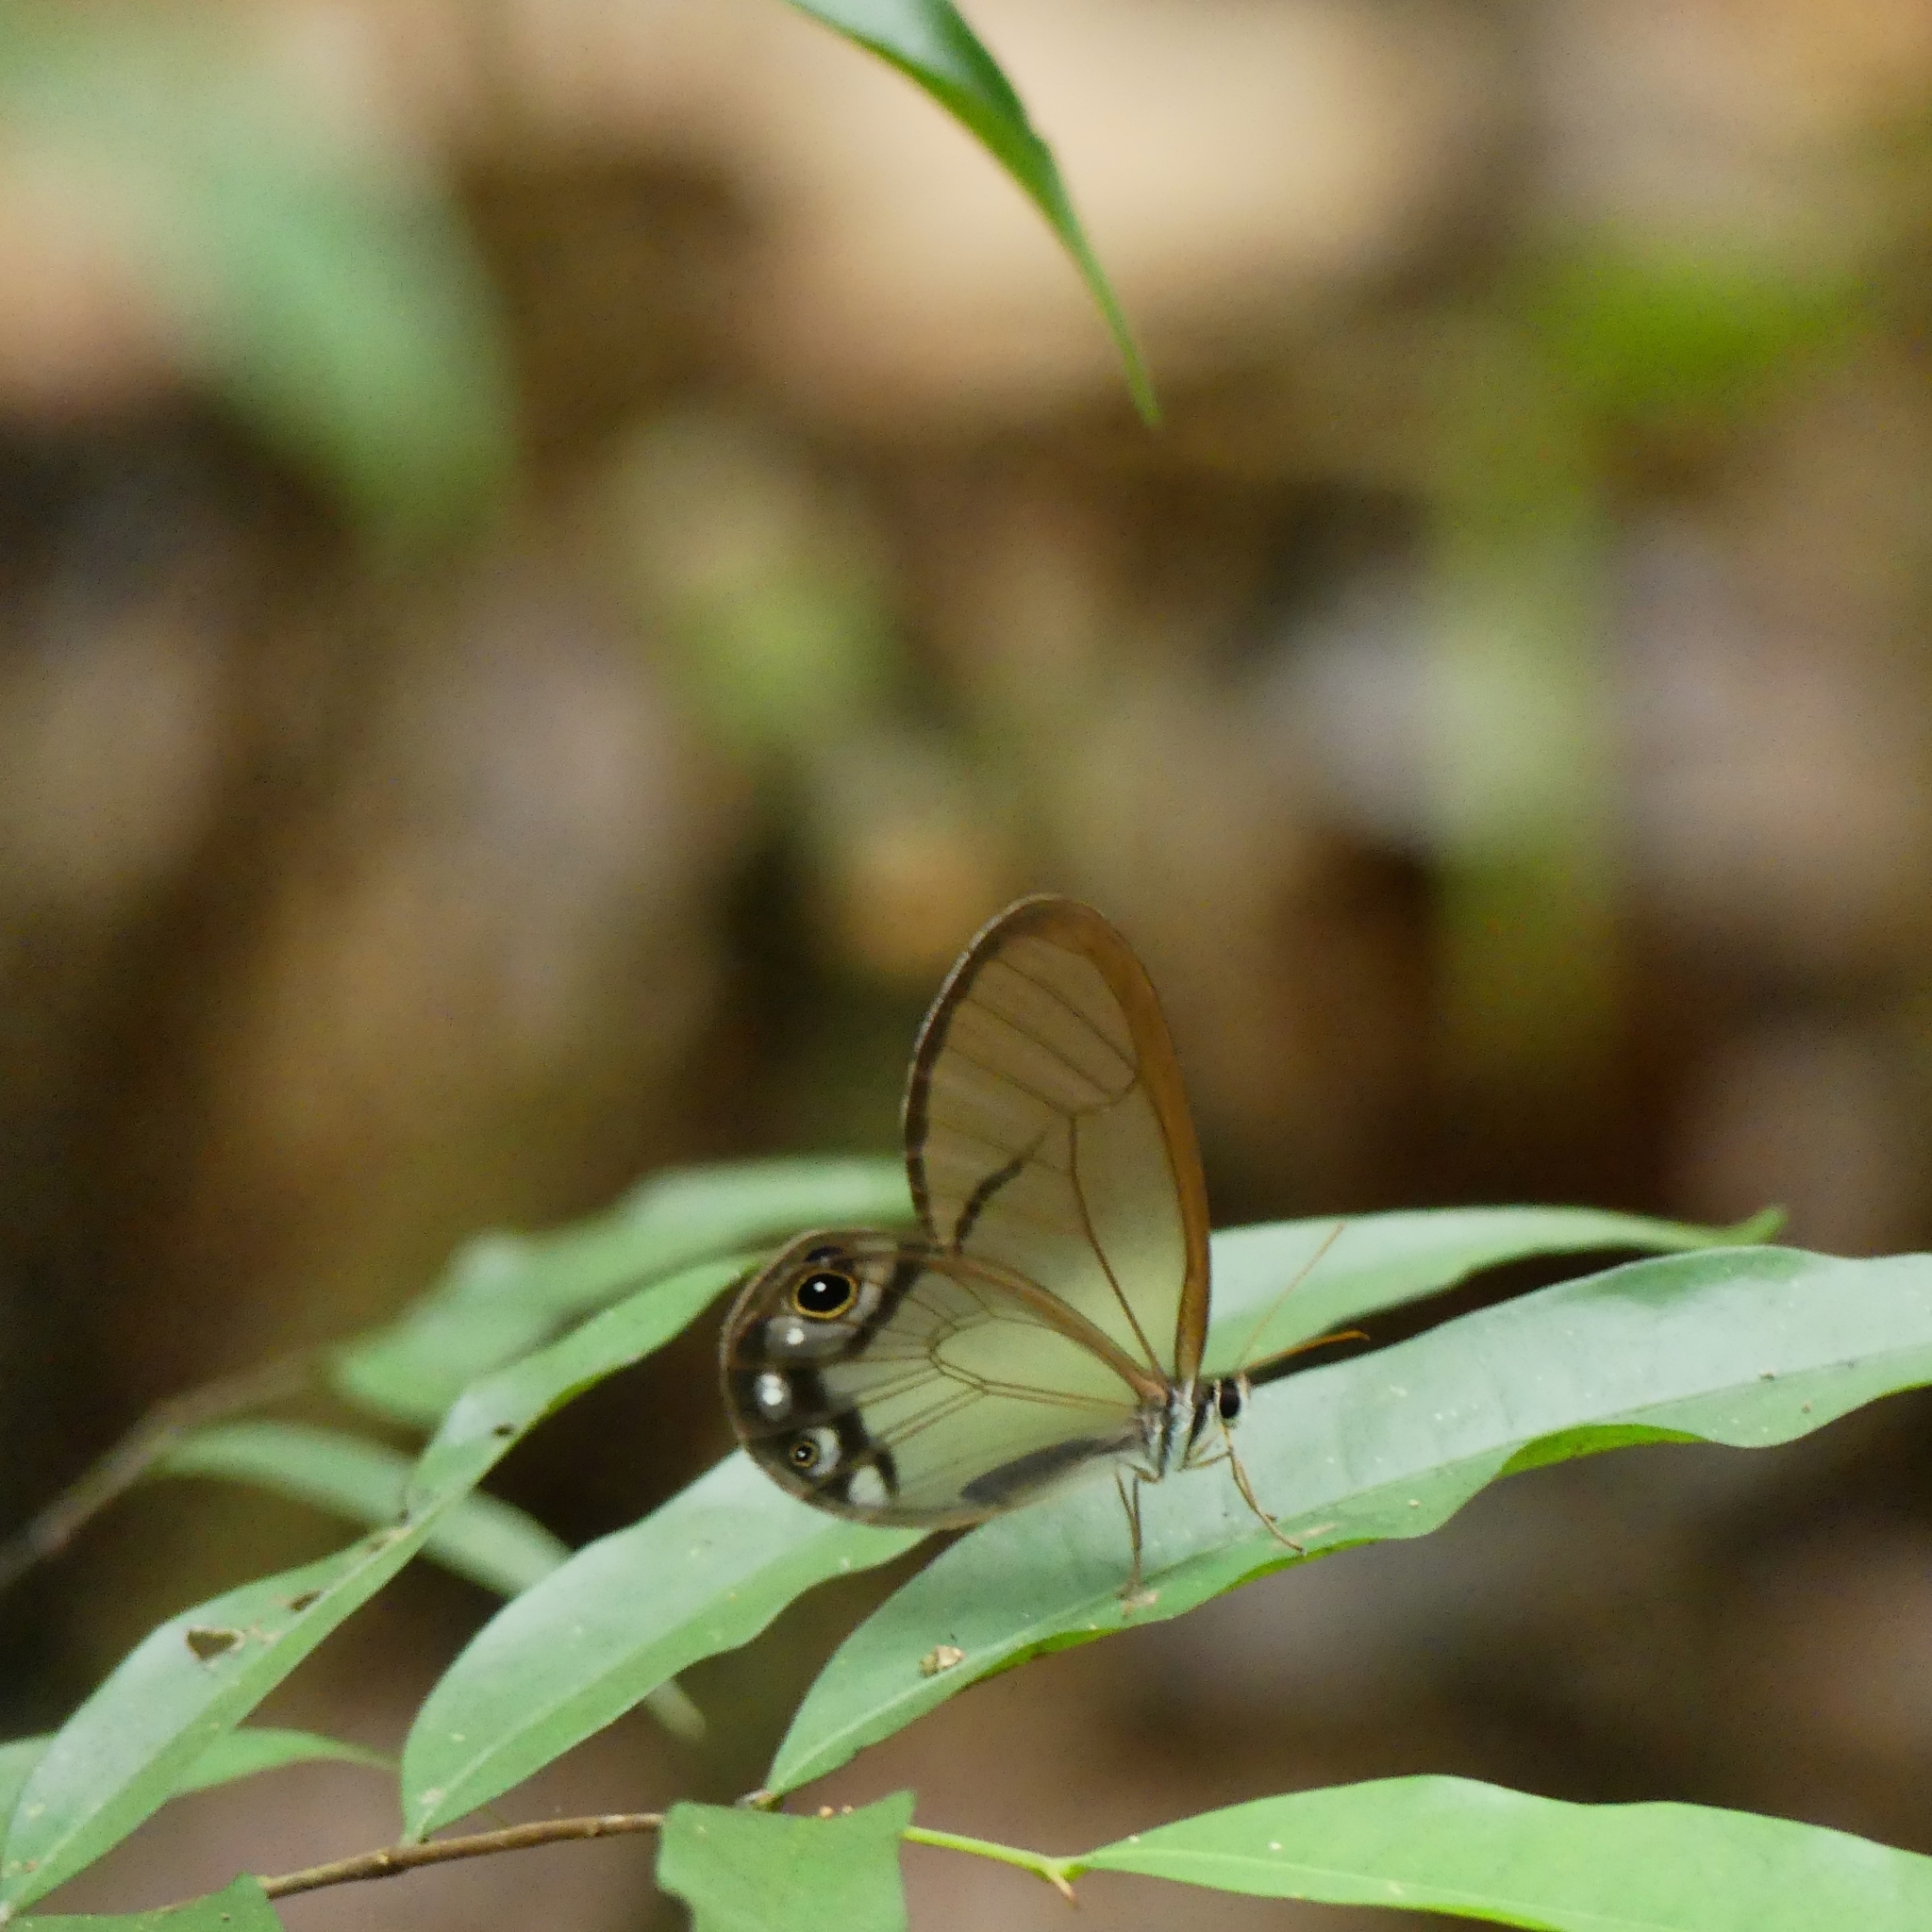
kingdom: Animalia
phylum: Arthropoda
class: Insecta
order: Lepidoptera
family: Nymphalidae
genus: Cithaerias
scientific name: Cithaerias pireta
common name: Rusted clearwing-satyr
